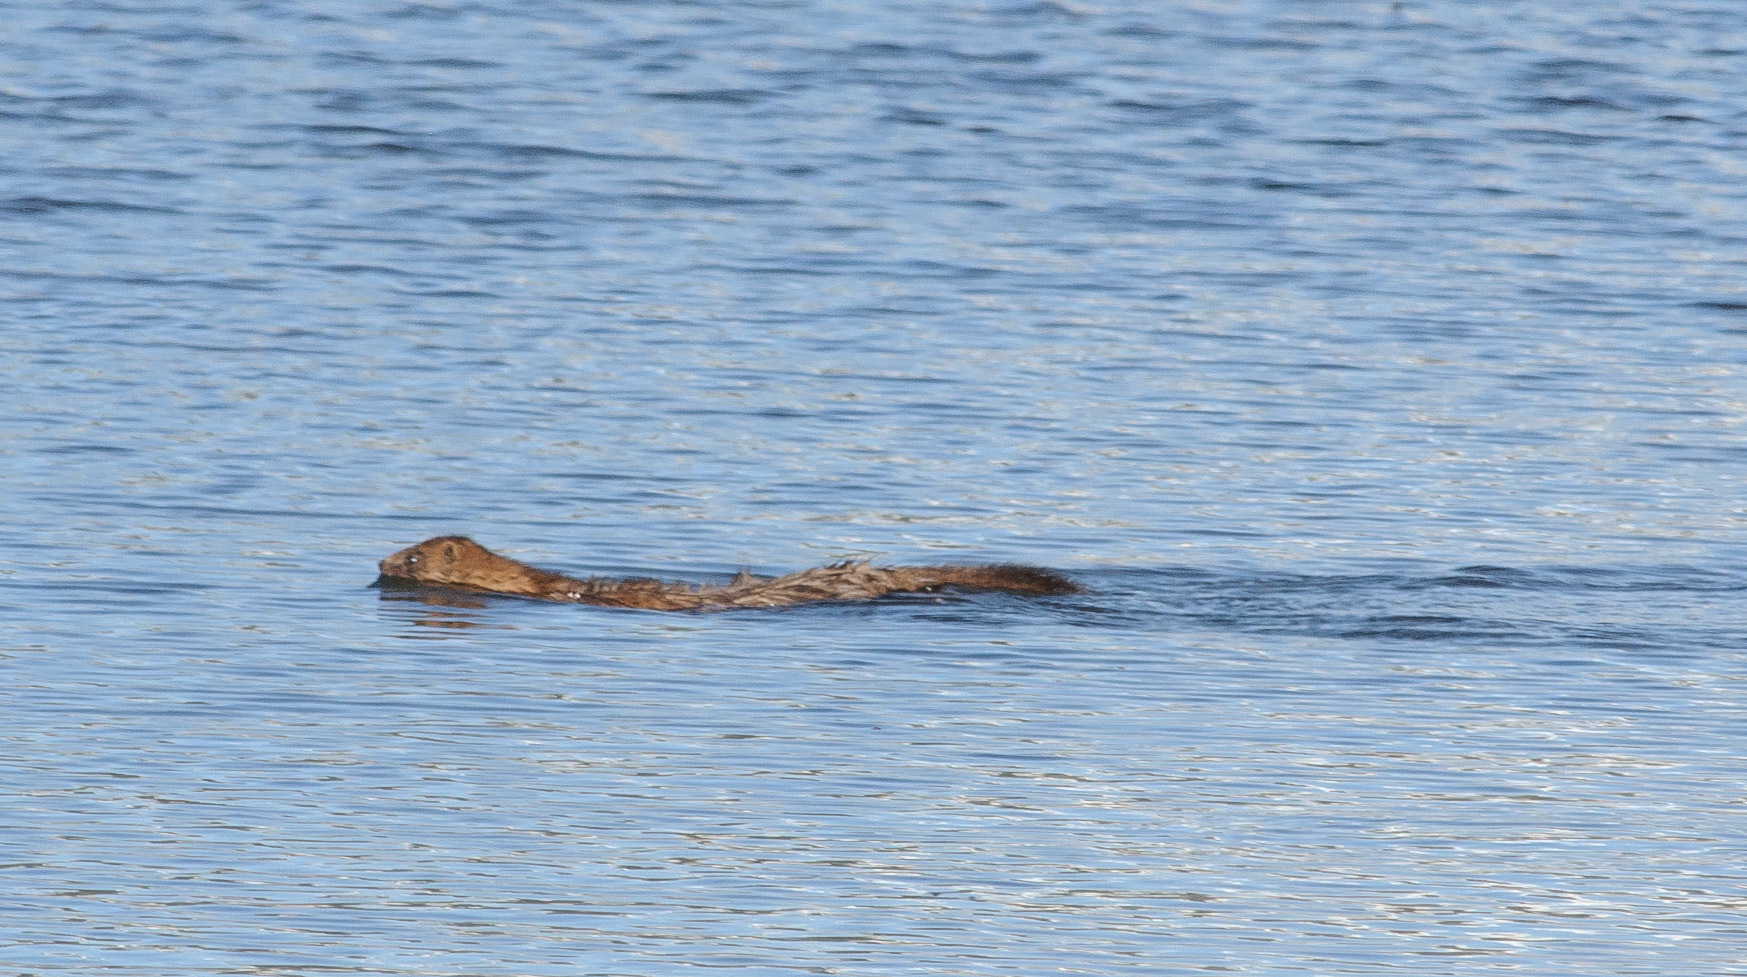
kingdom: Animalia
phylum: Chordata
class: Mammalia
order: Carnivora
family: Mustelidae
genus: Mustela
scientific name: Mustela
